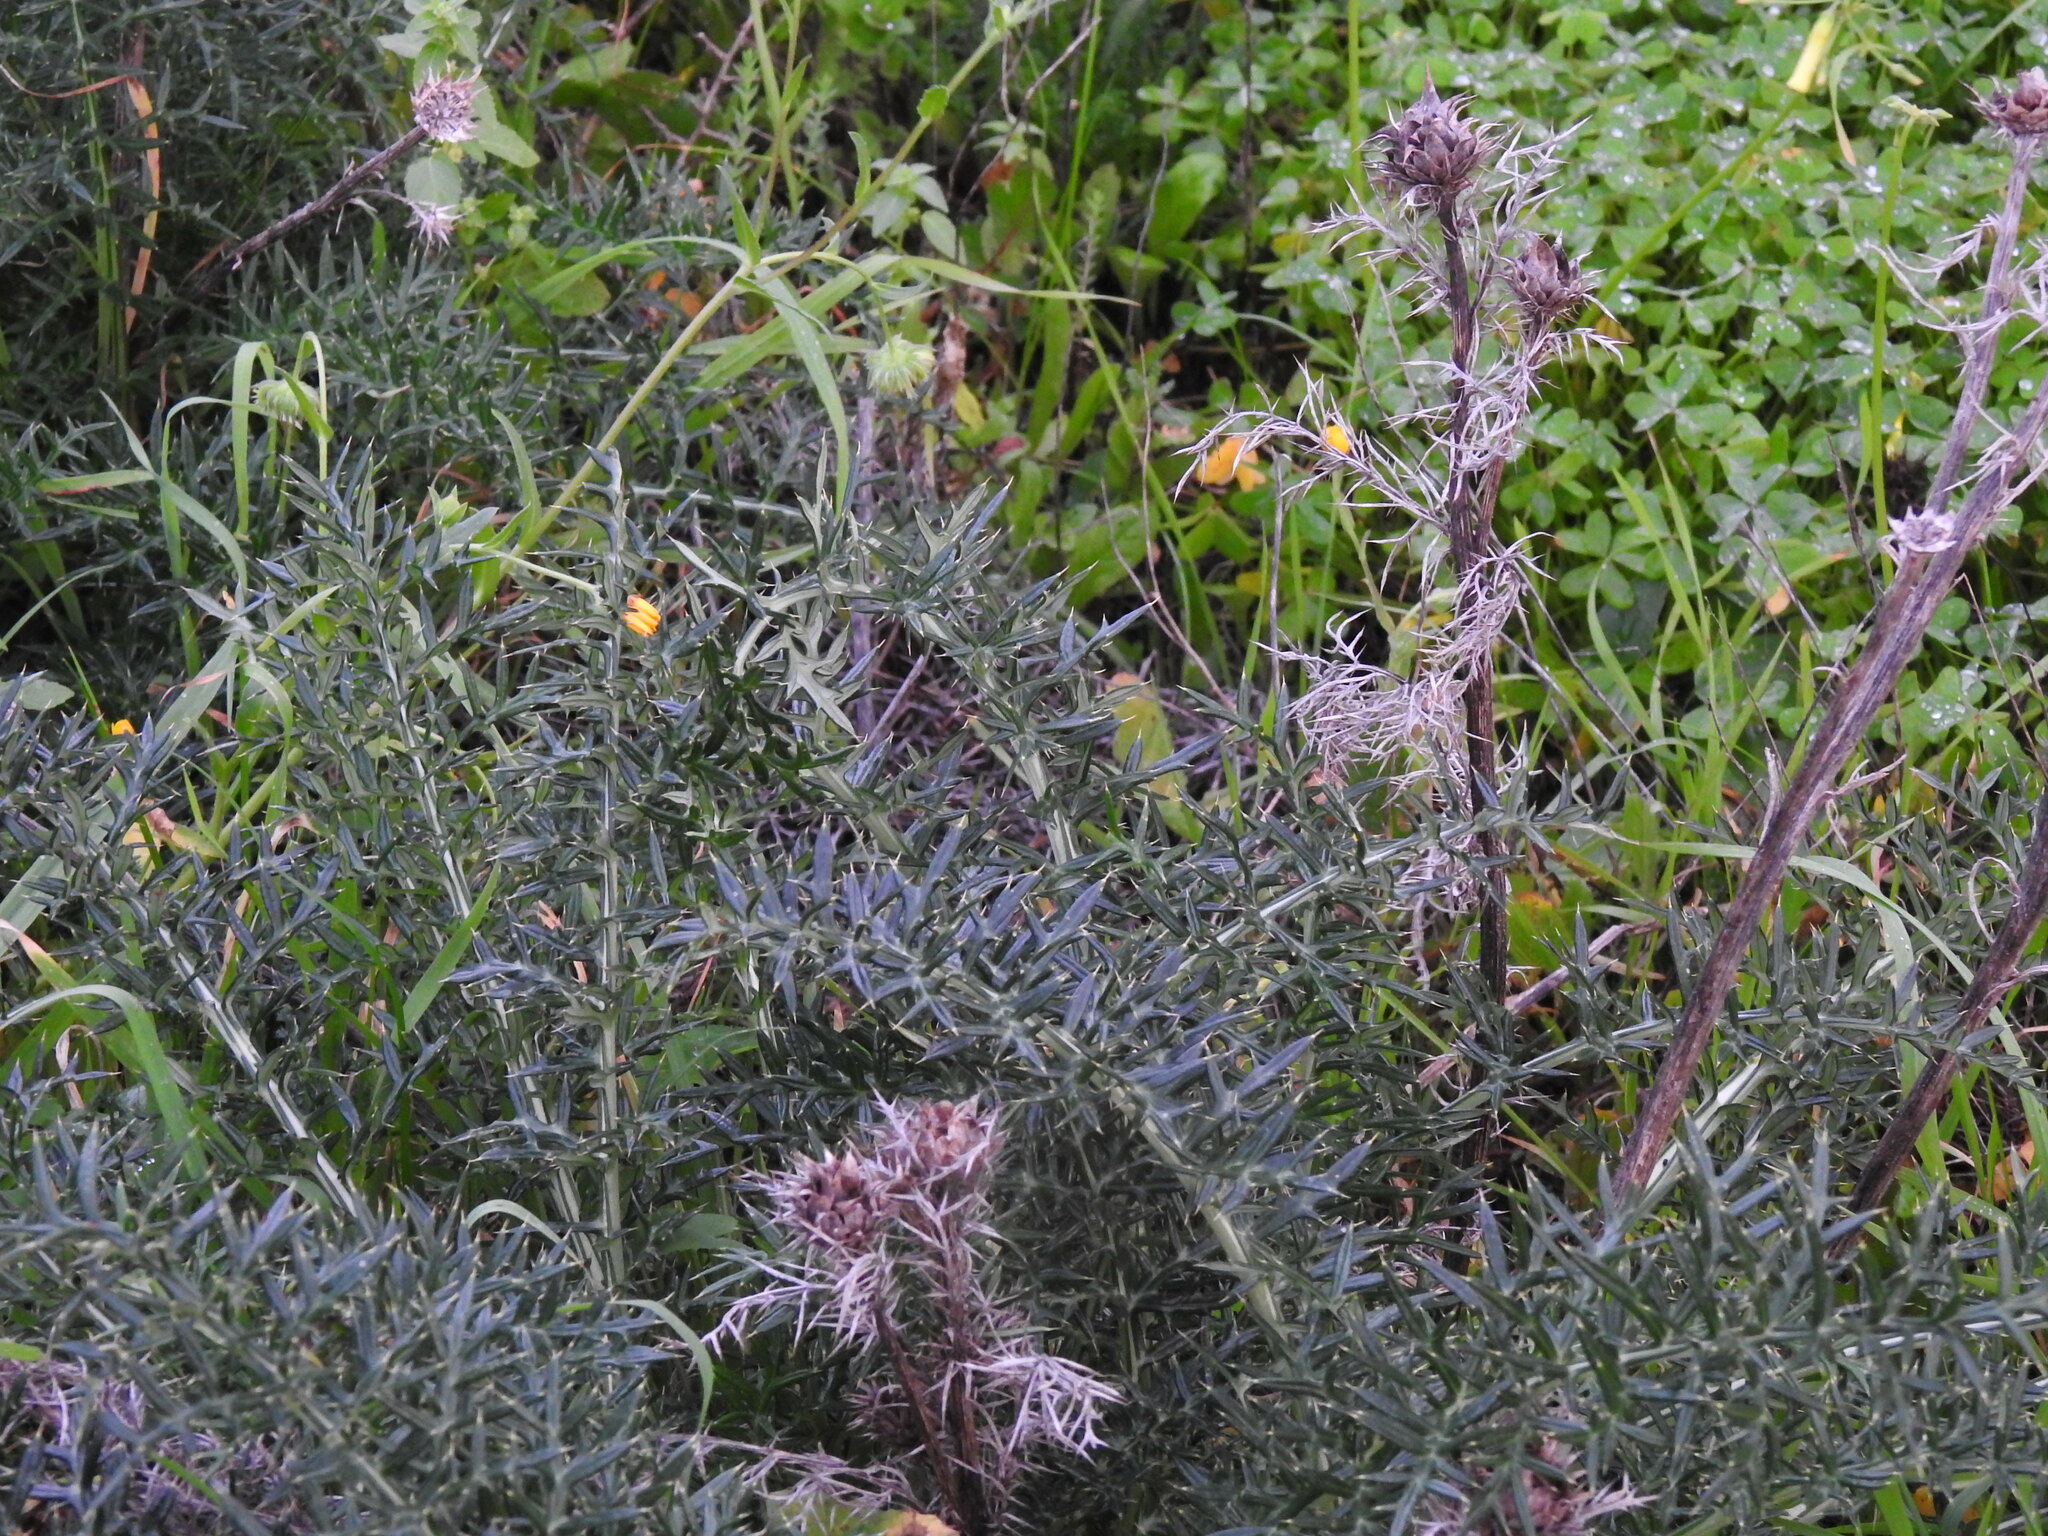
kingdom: Plantae
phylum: Tracheophyta
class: Magnoliopsida
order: Asterales
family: Asteraceae
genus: Cynara
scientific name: Cynara humilis
